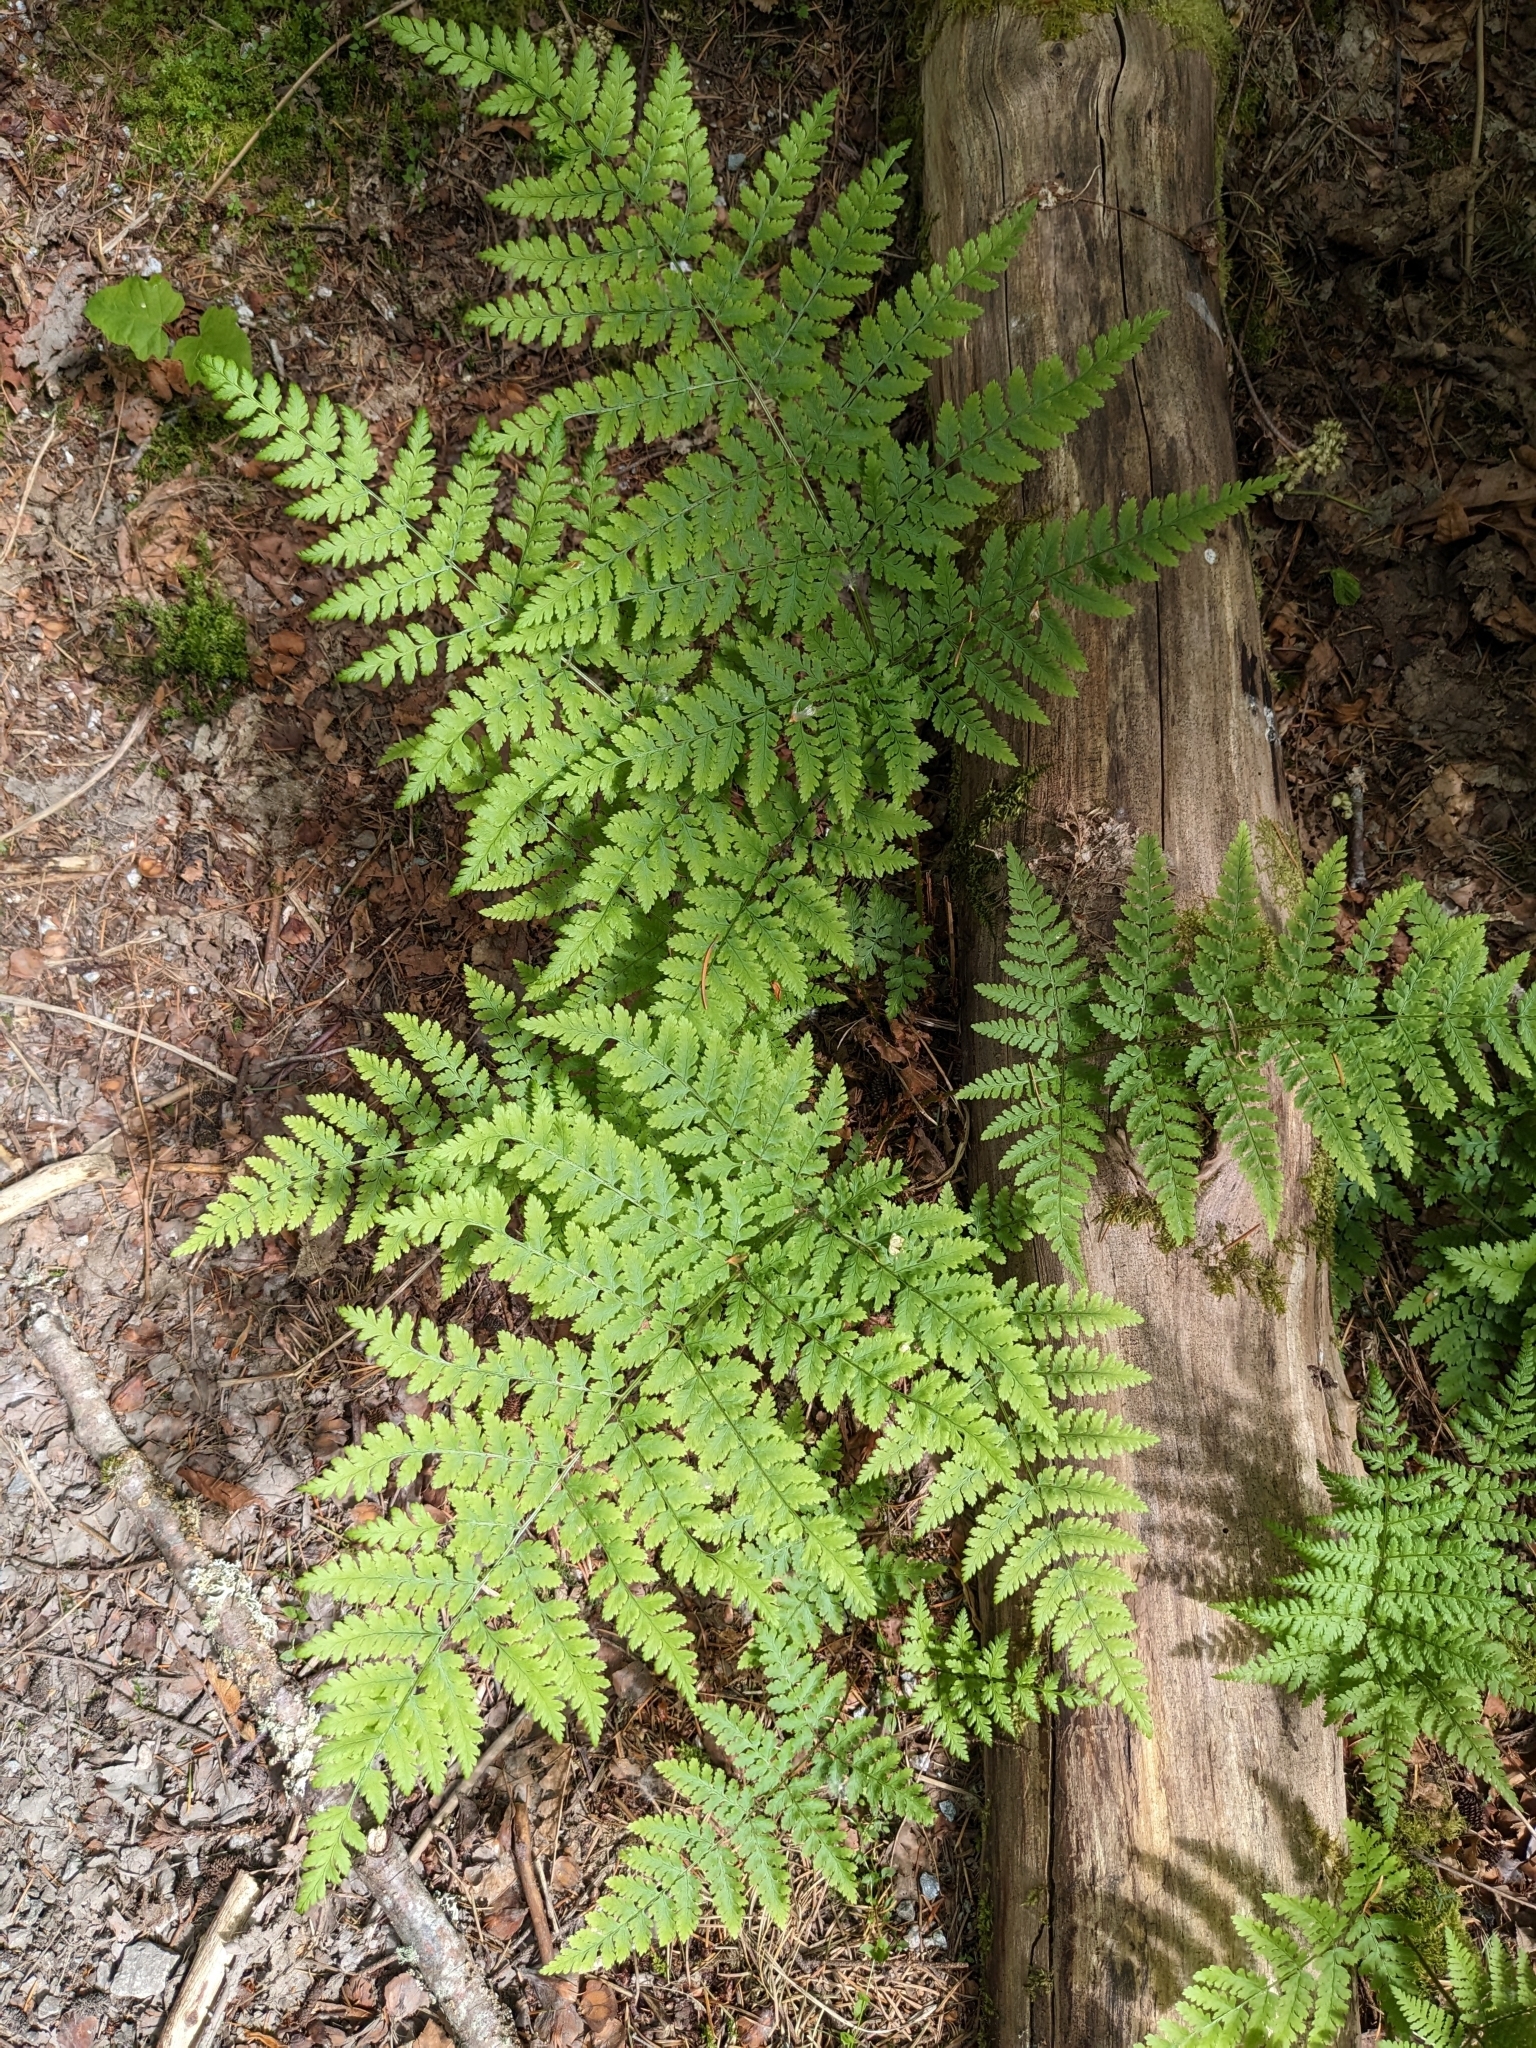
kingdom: Plantae
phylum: Tracheophyta
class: Polypodiopsida
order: Polypodiales
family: Dryopteridaceae
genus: Dryopteris
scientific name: Dryopteris expansa
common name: Northern buckler fern
